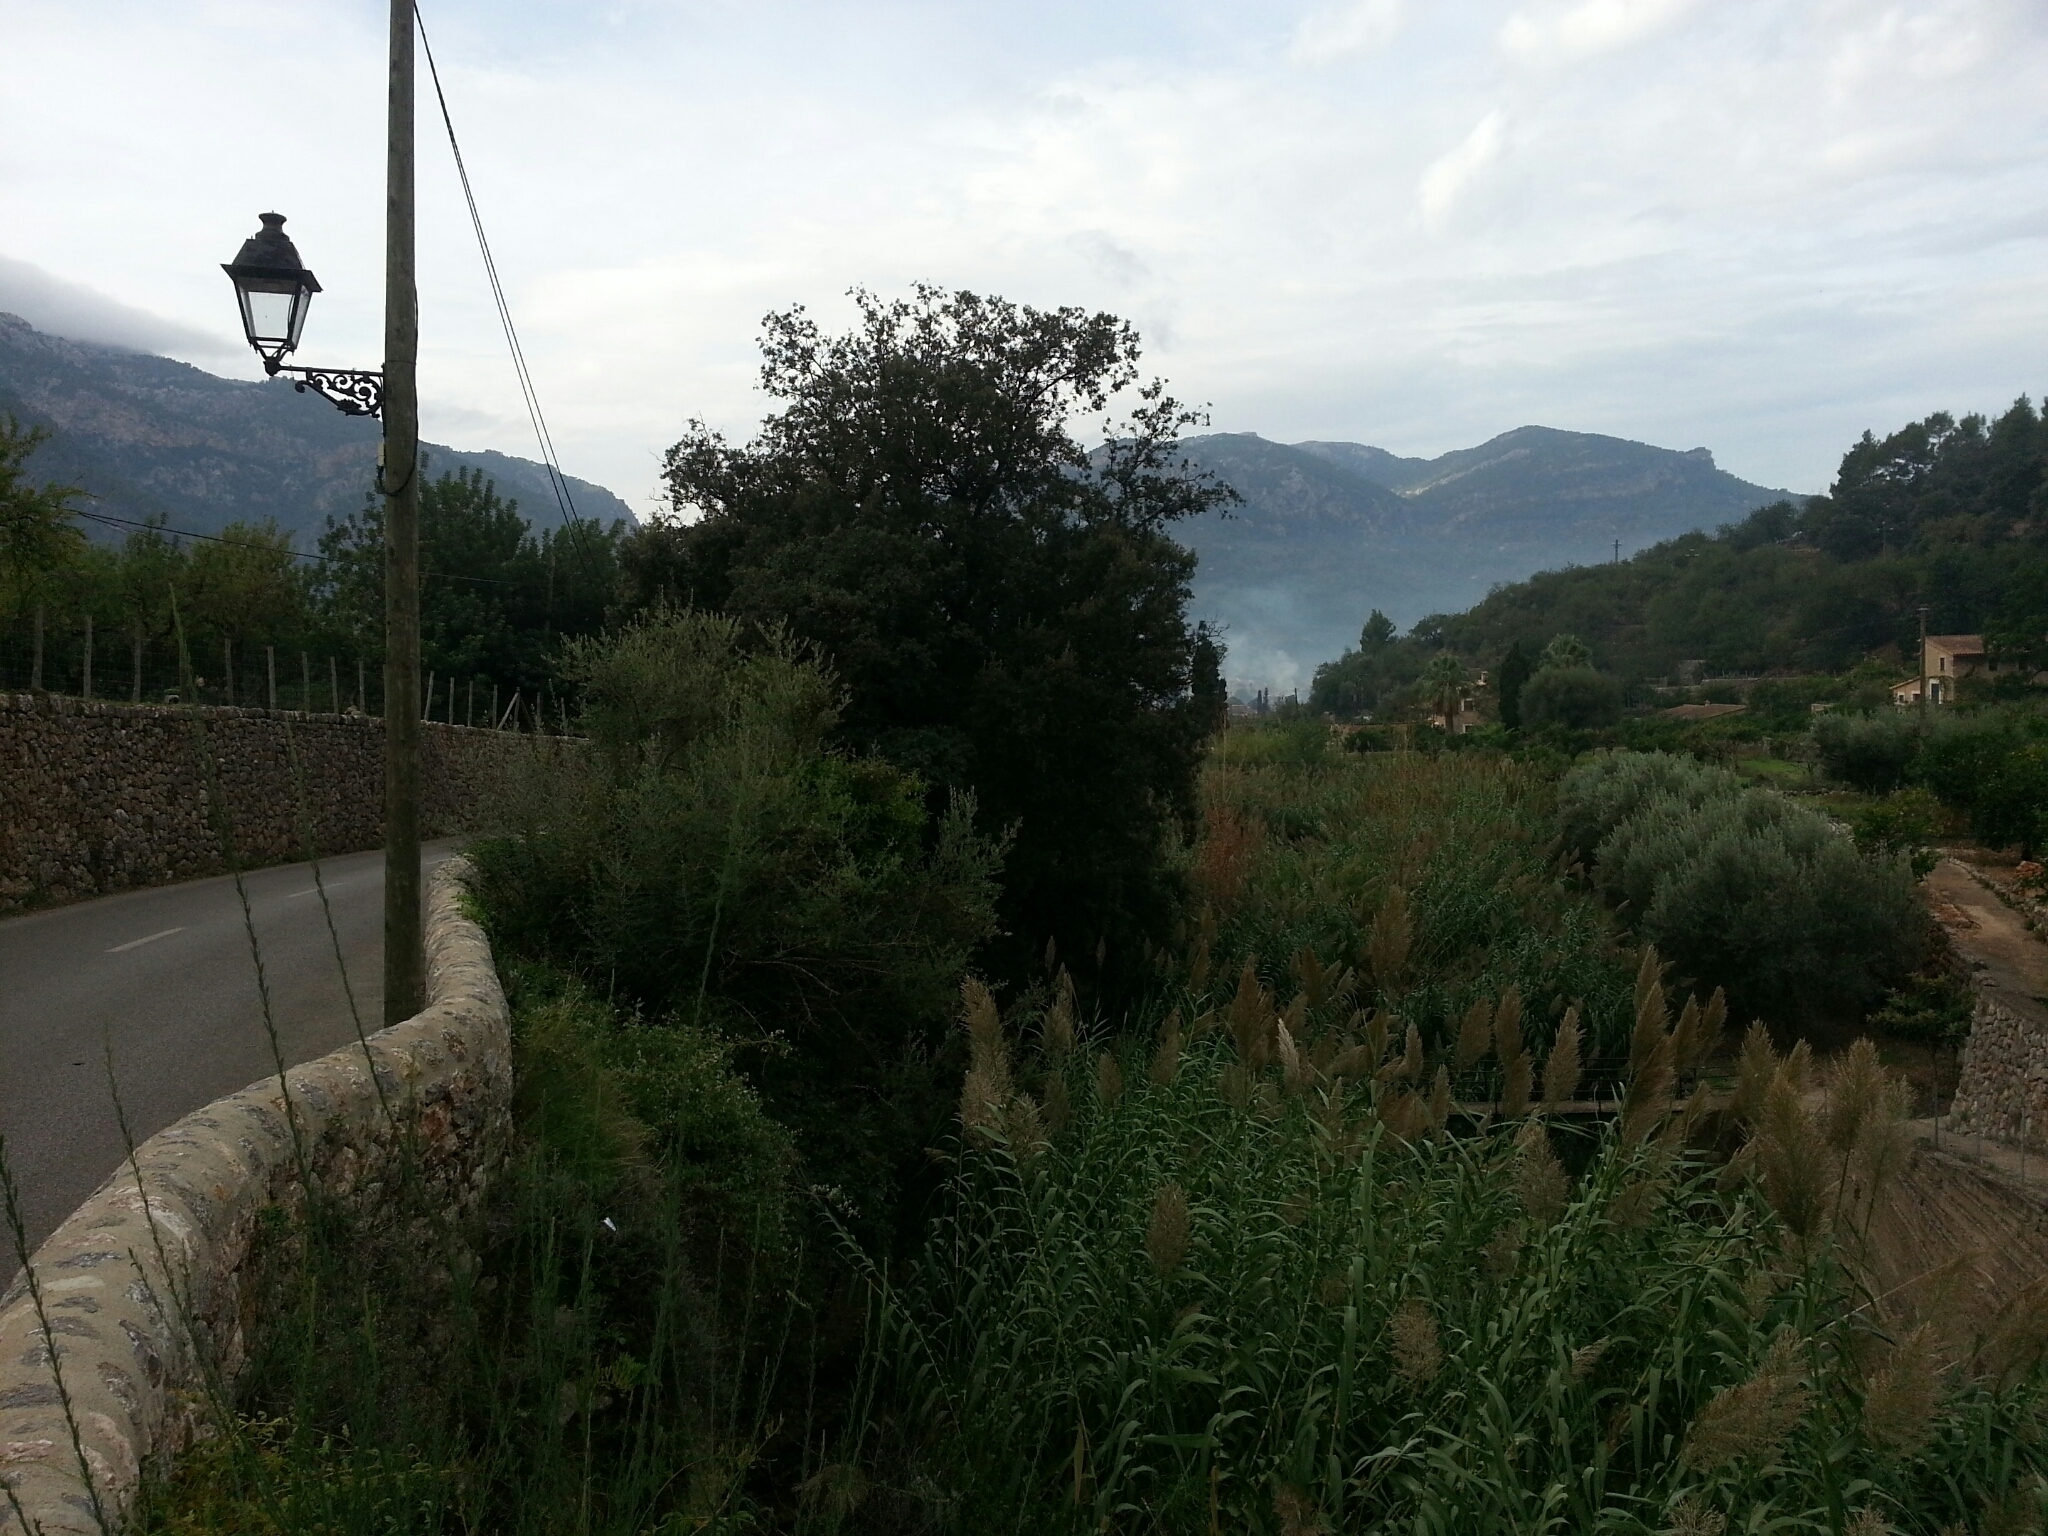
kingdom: Plantae
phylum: Tracheophyta
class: Magnoliopsida
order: Fagales
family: Fagaceae
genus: Quercus
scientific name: Quercus ilex
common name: Evergreen oak
